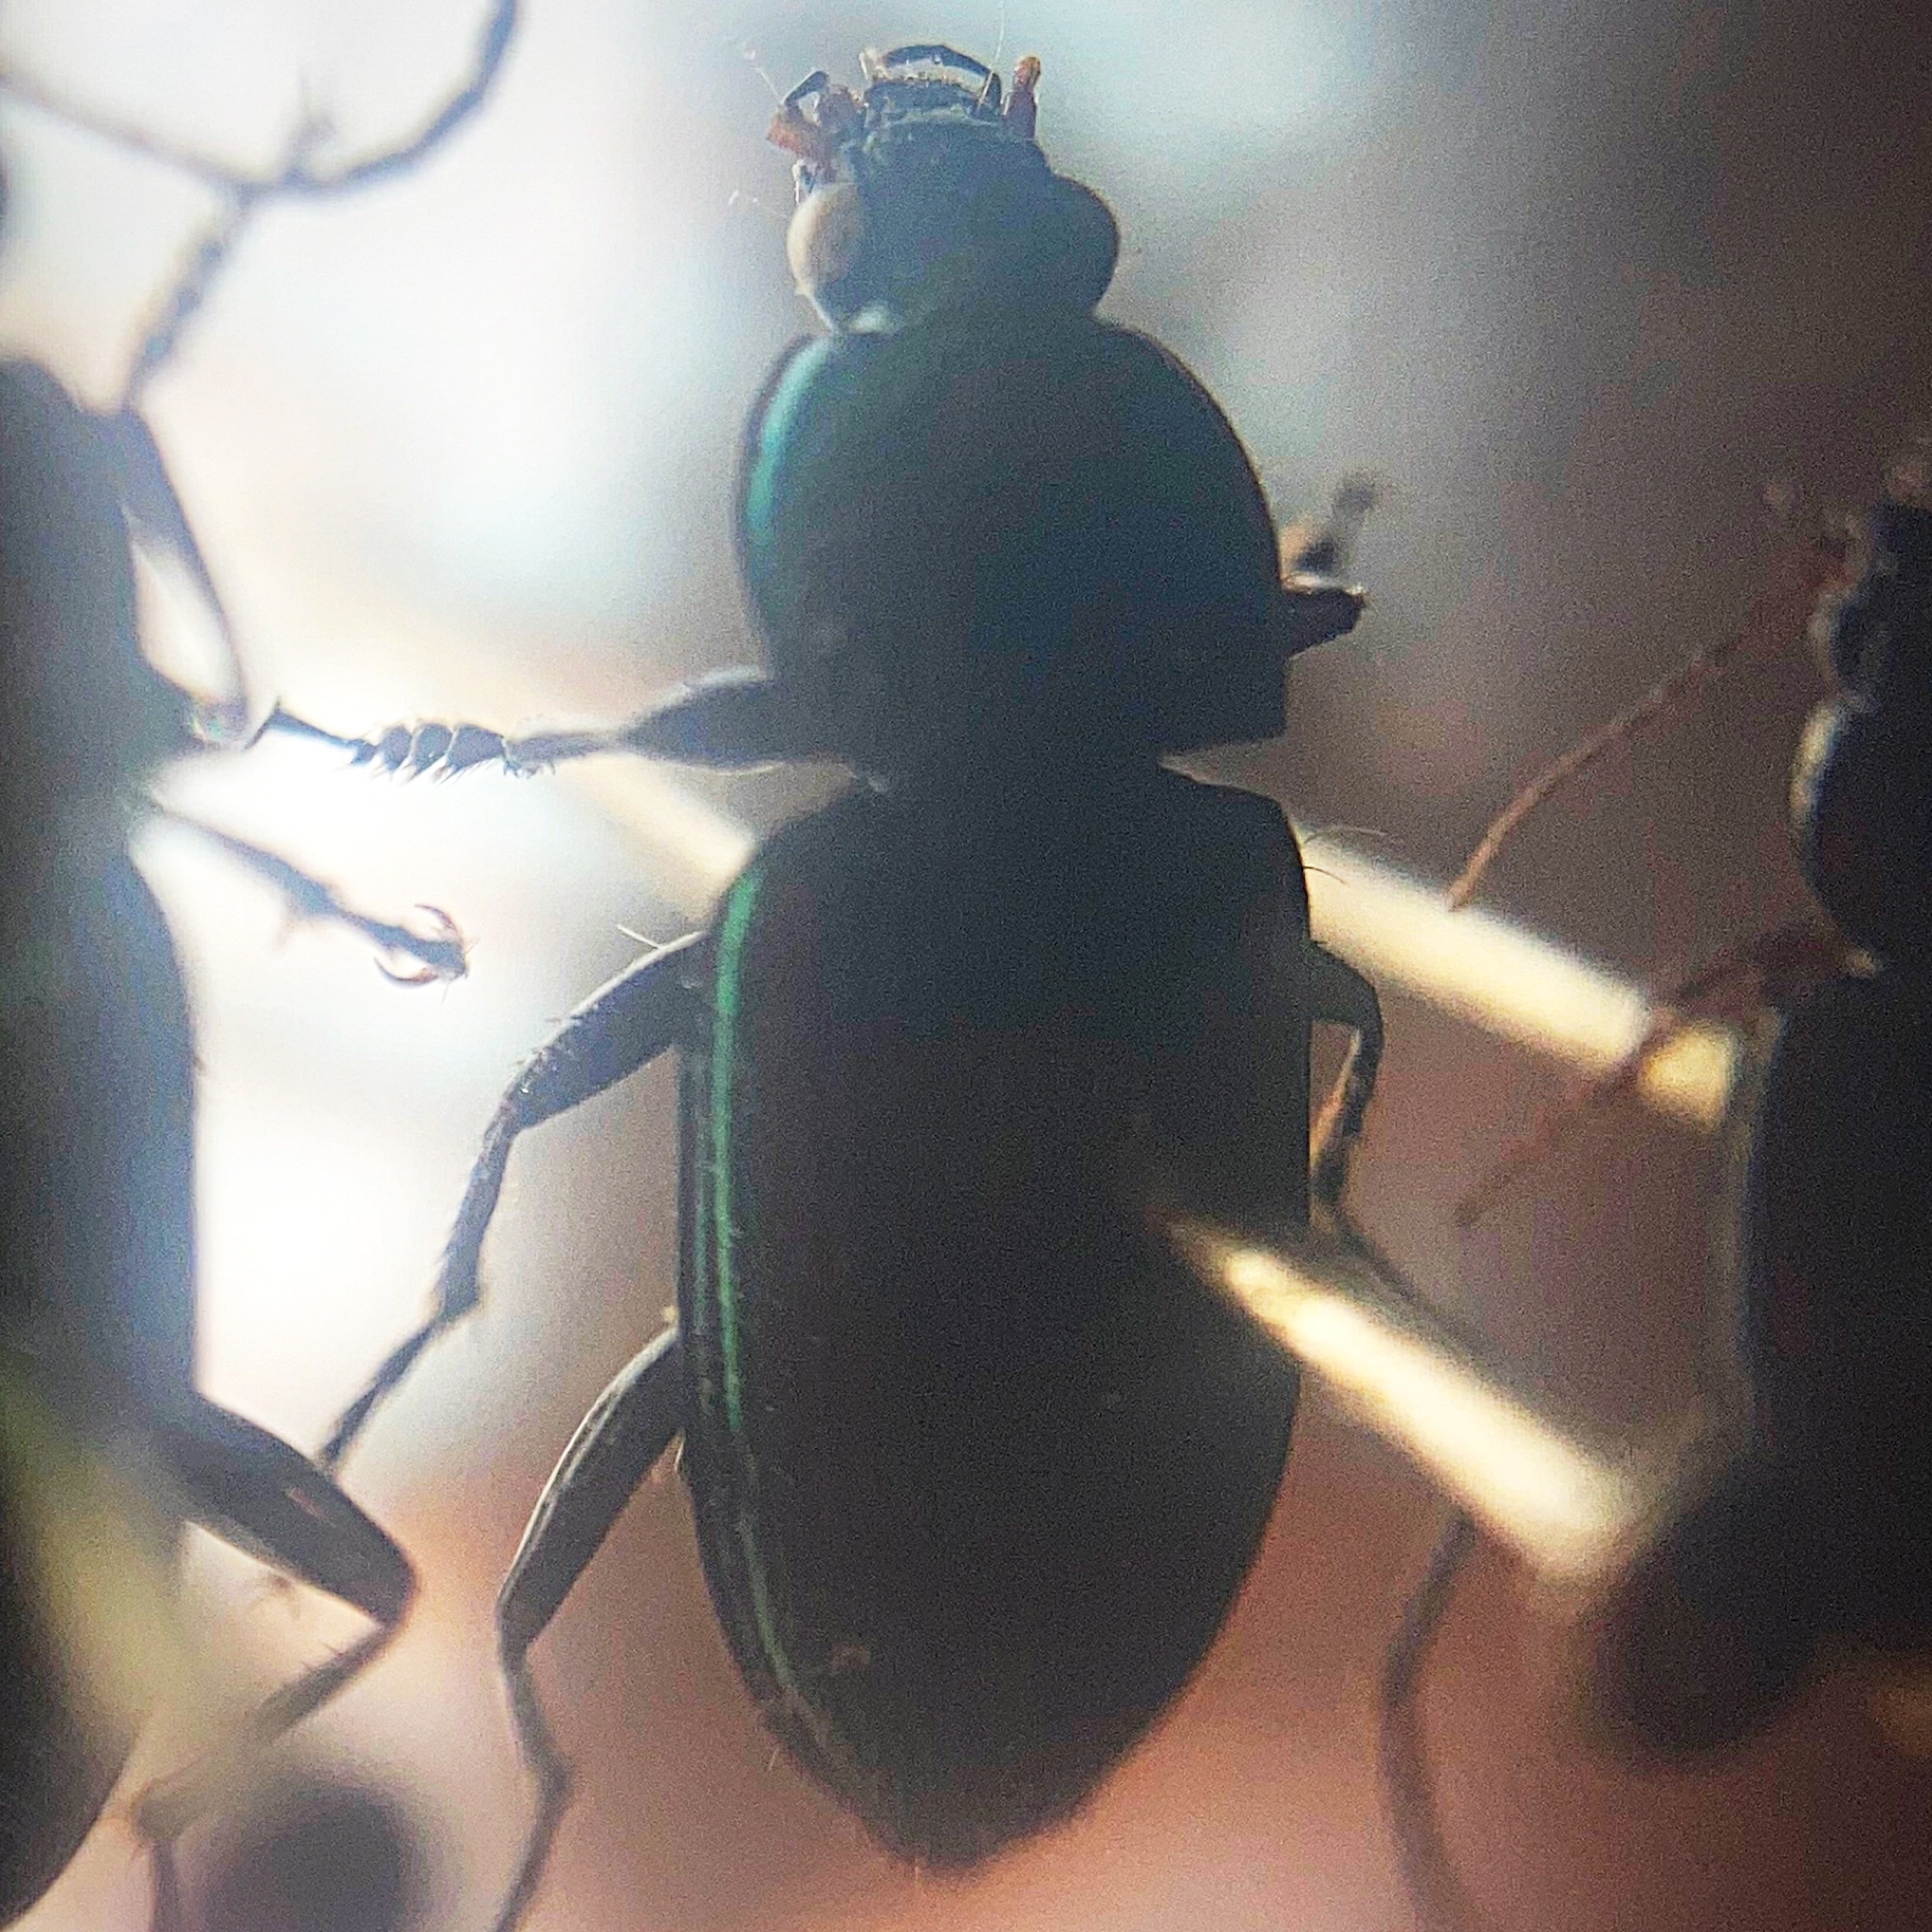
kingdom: Animalia
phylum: Arthropoda
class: Insecta
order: Coleoptera
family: Carabidae
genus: Poecilus
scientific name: Poecilus chalcites
